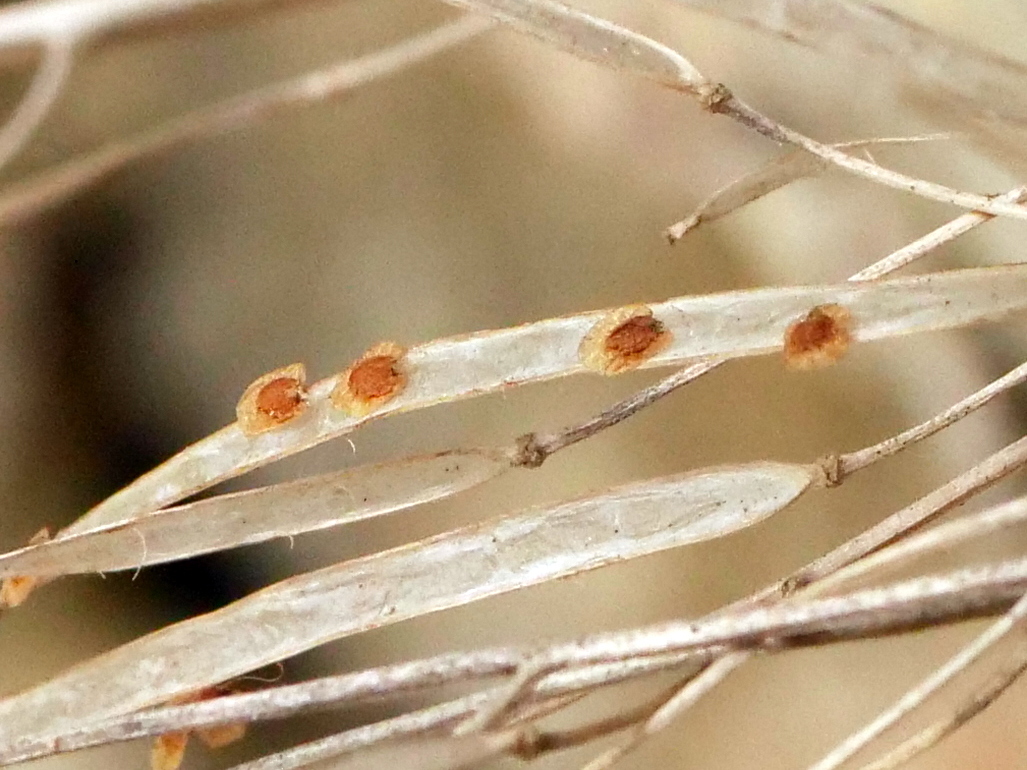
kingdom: Plantae
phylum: Tracheophyta
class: Magnoliopsida
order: Brassicales
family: Brassicaceae
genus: Arabis
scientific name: Arabis stellulata
